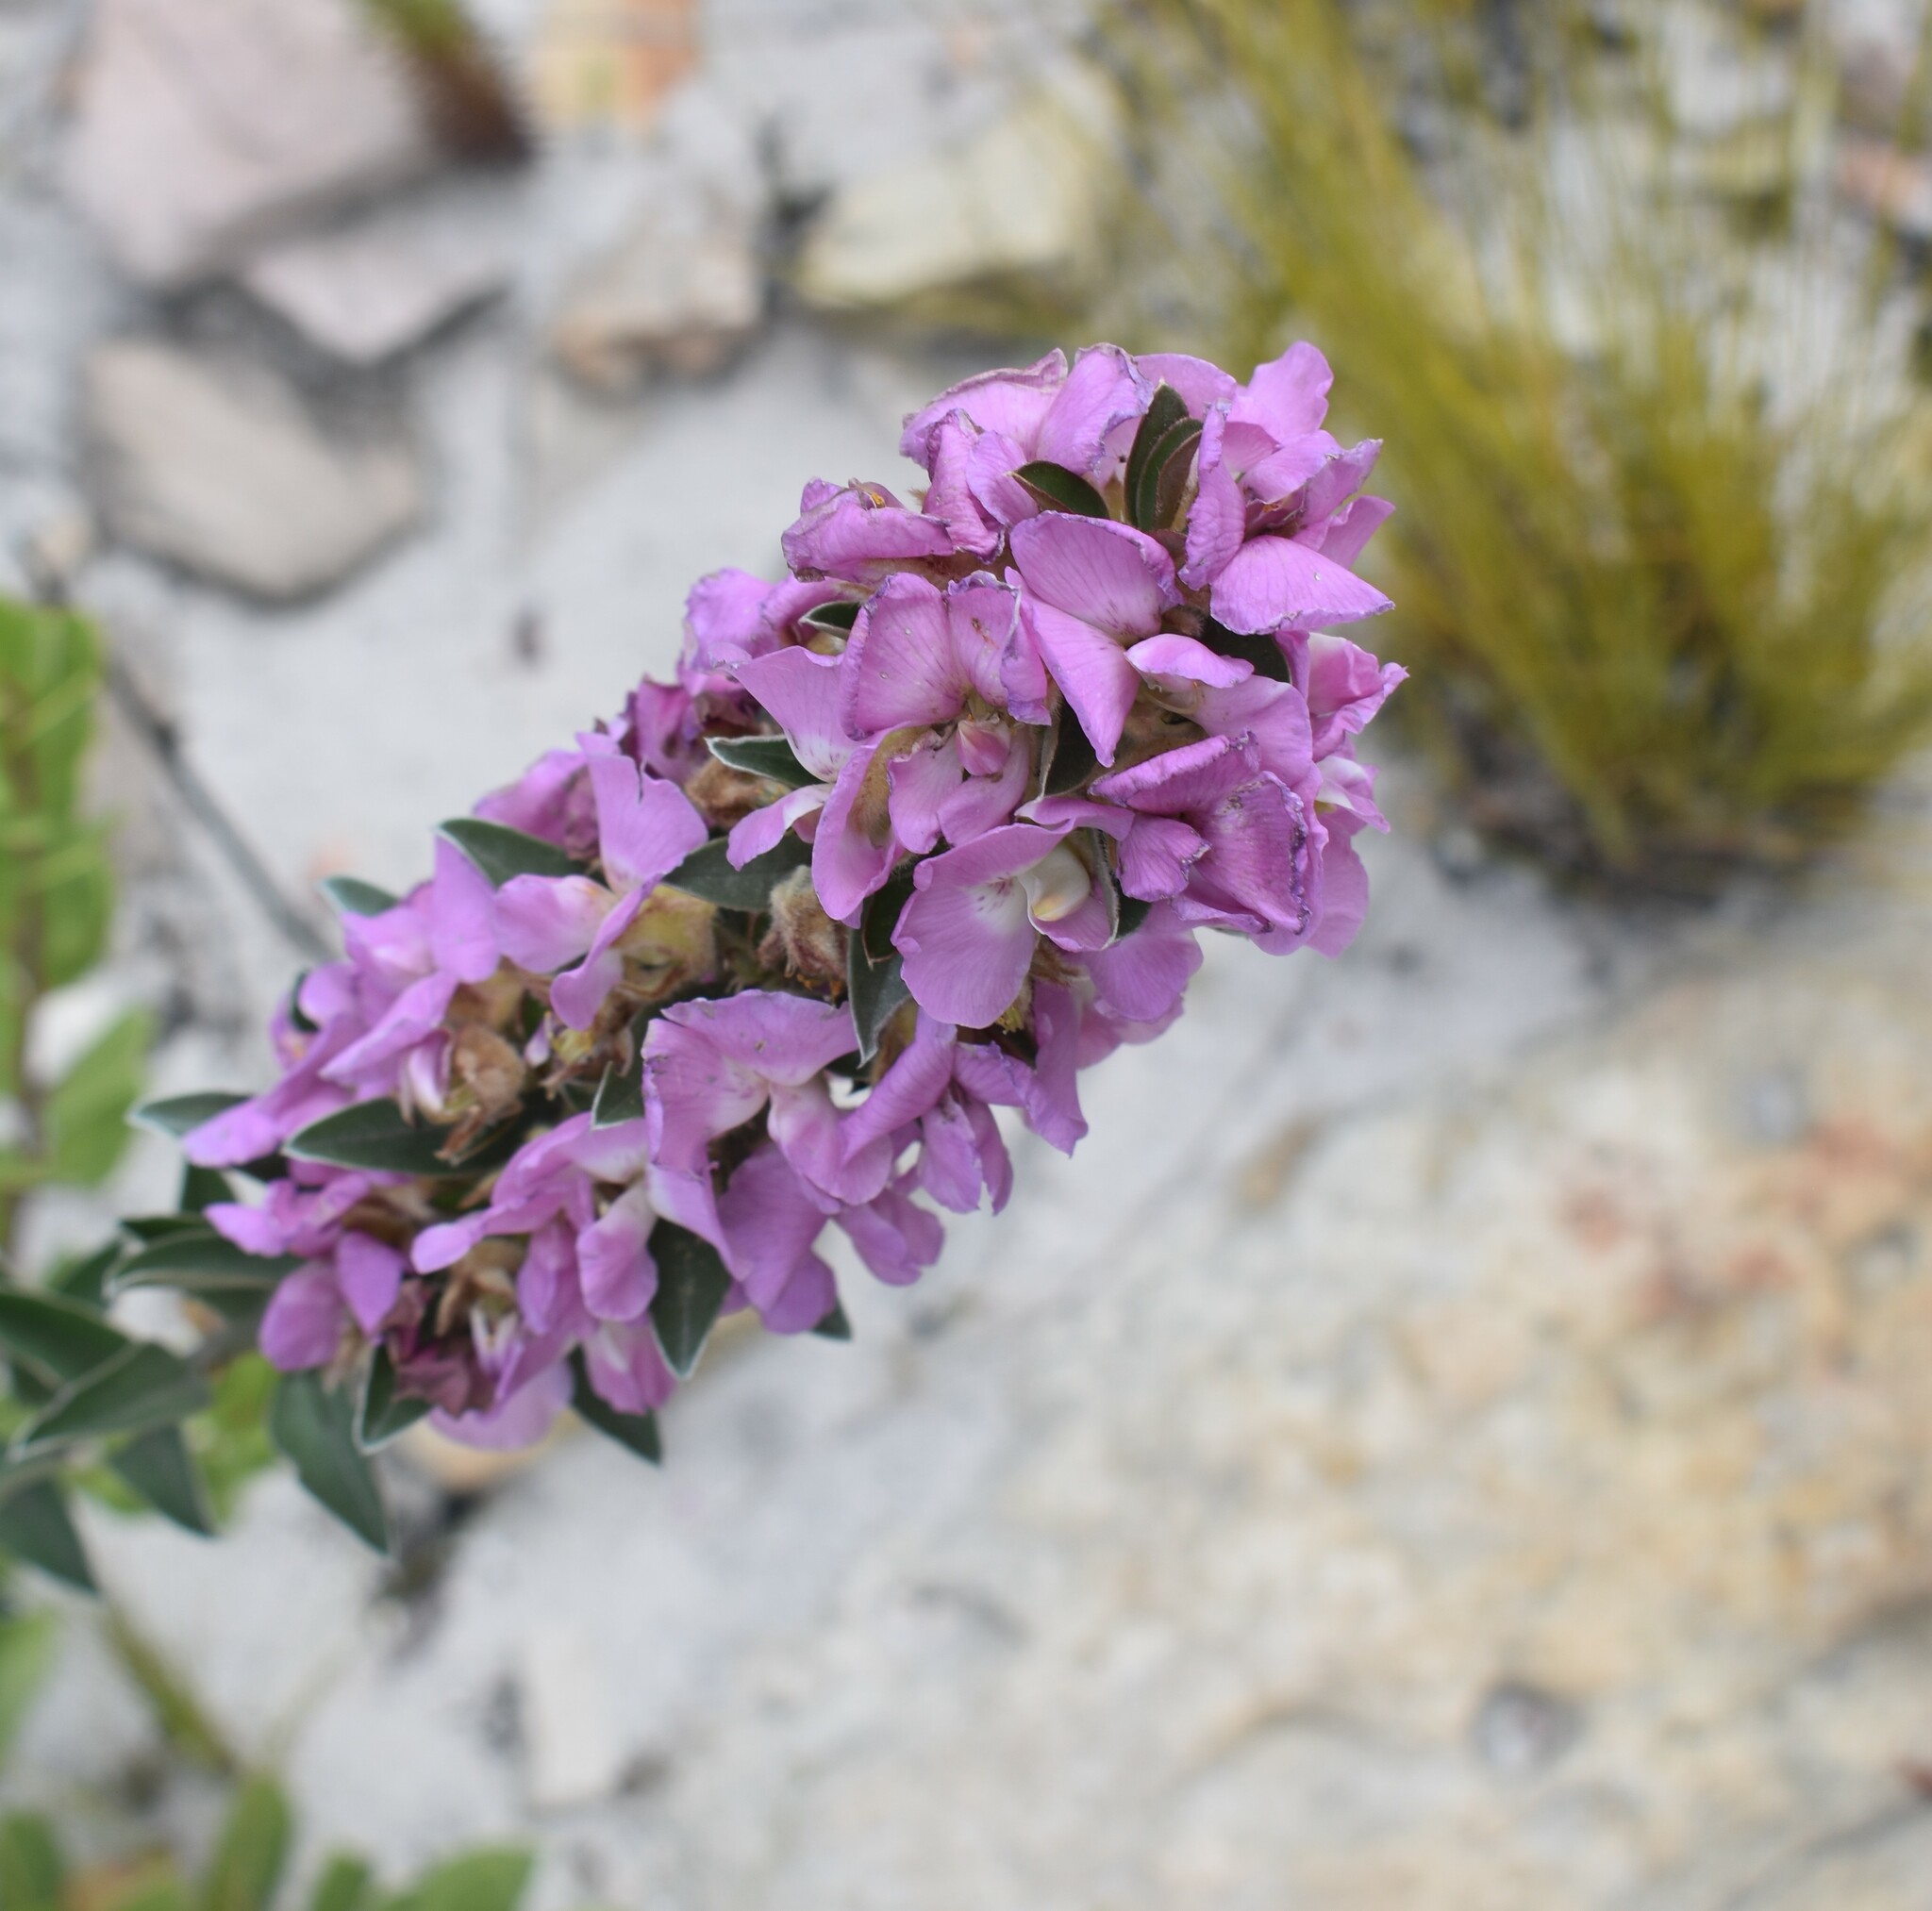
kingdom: Plantae
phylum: Tracheophyta
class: Magnoliopsida
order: Fabales
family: Fabaceae
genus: Podalyria
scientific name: Podalyria variabilis
